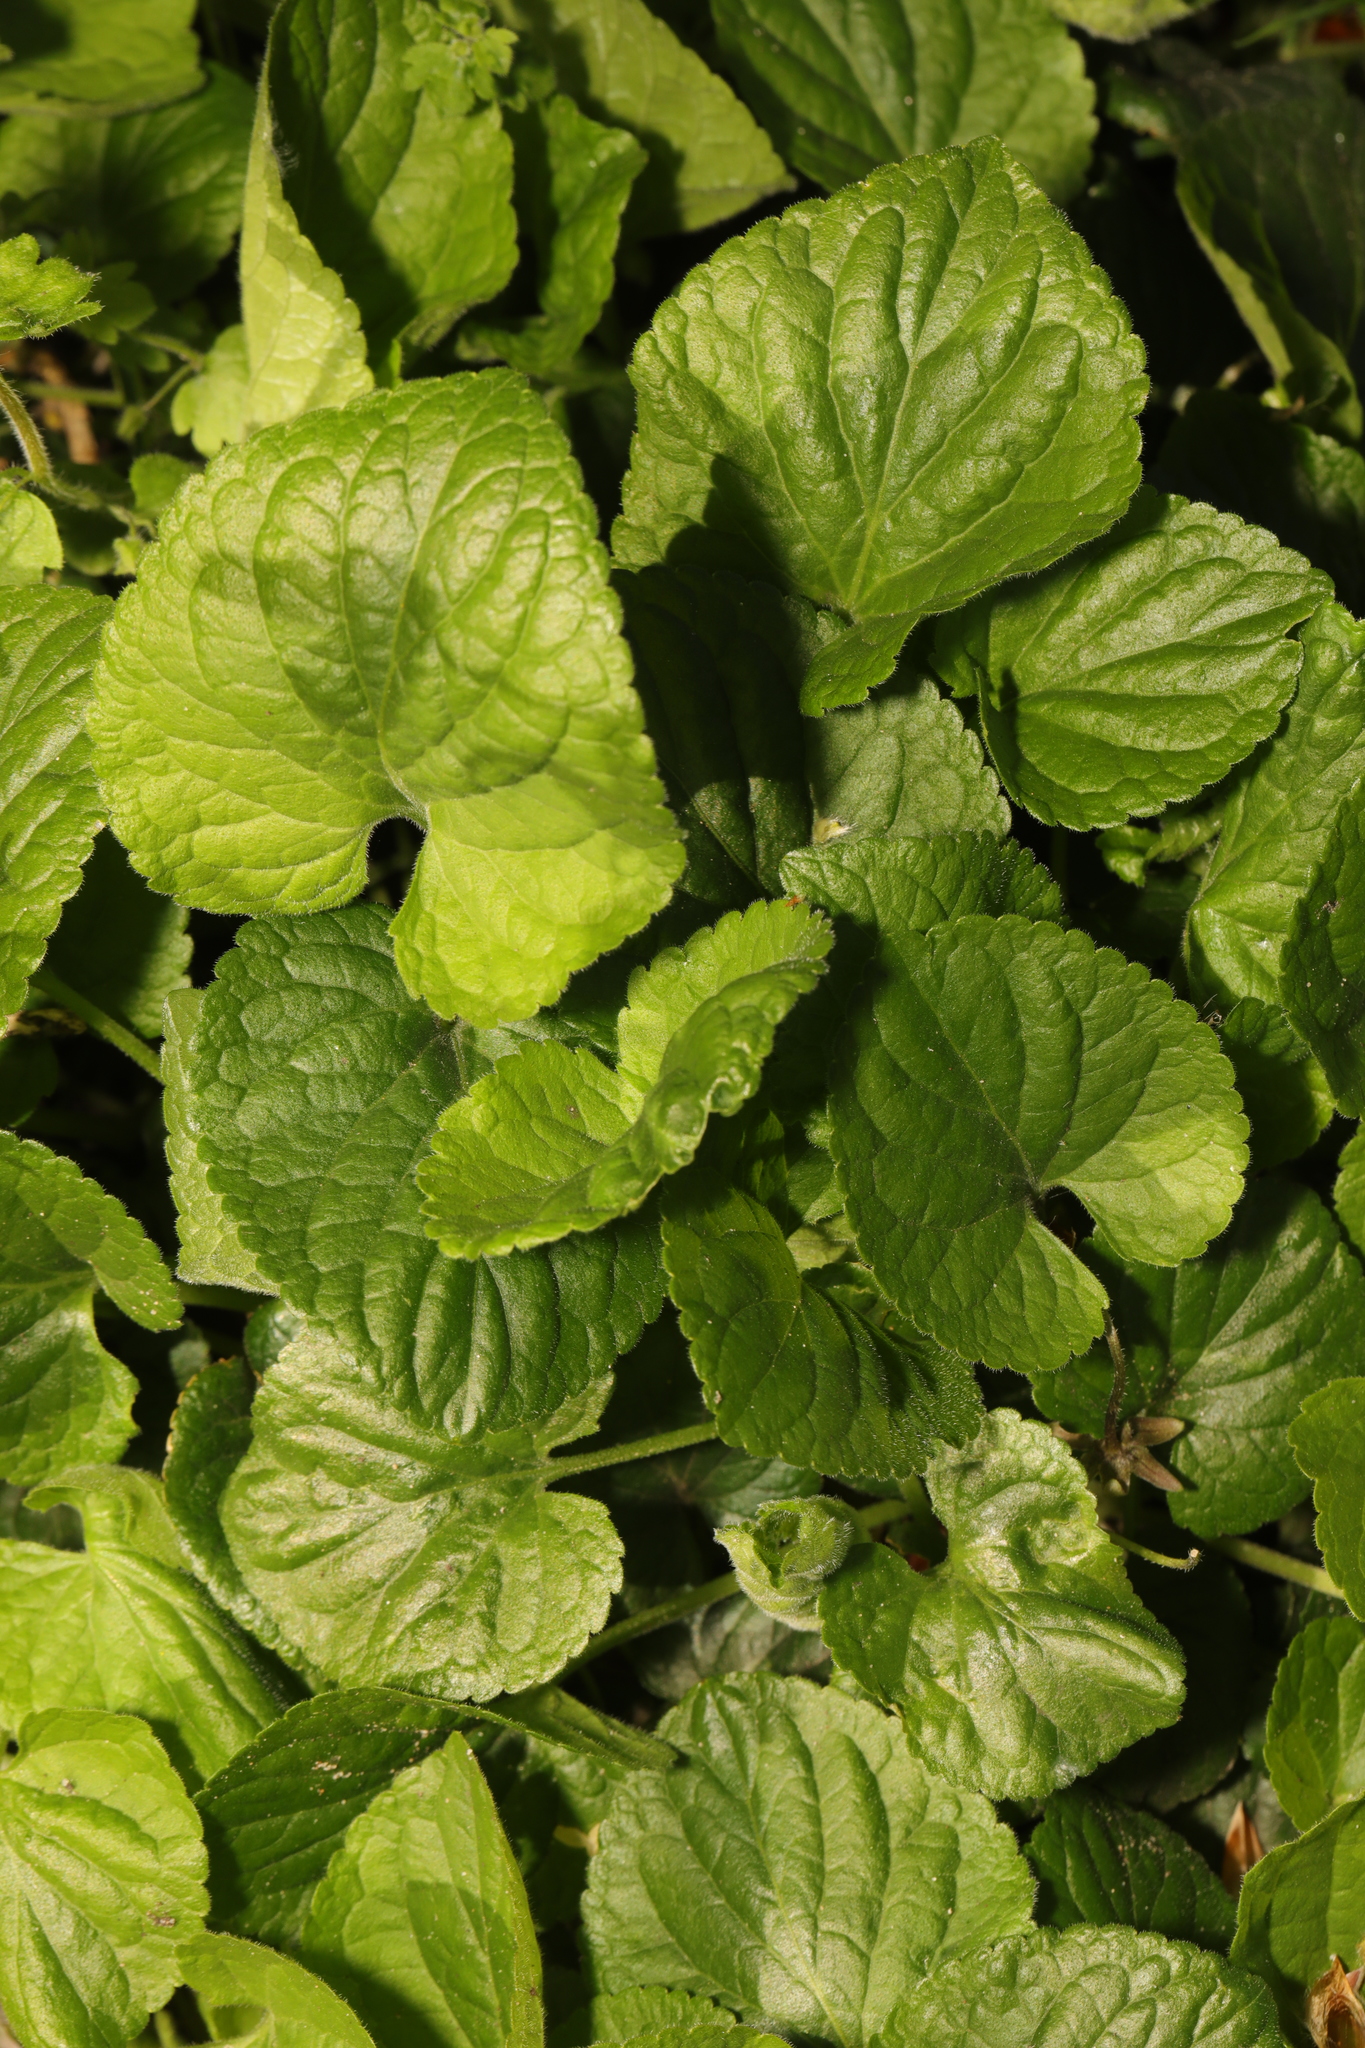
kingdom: Plantae
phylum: Tracheophyta
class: Magnoliopsida
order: Malpighiales
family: Violaceae
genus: Viola
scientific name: Viola odorata
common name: Sweet violet
